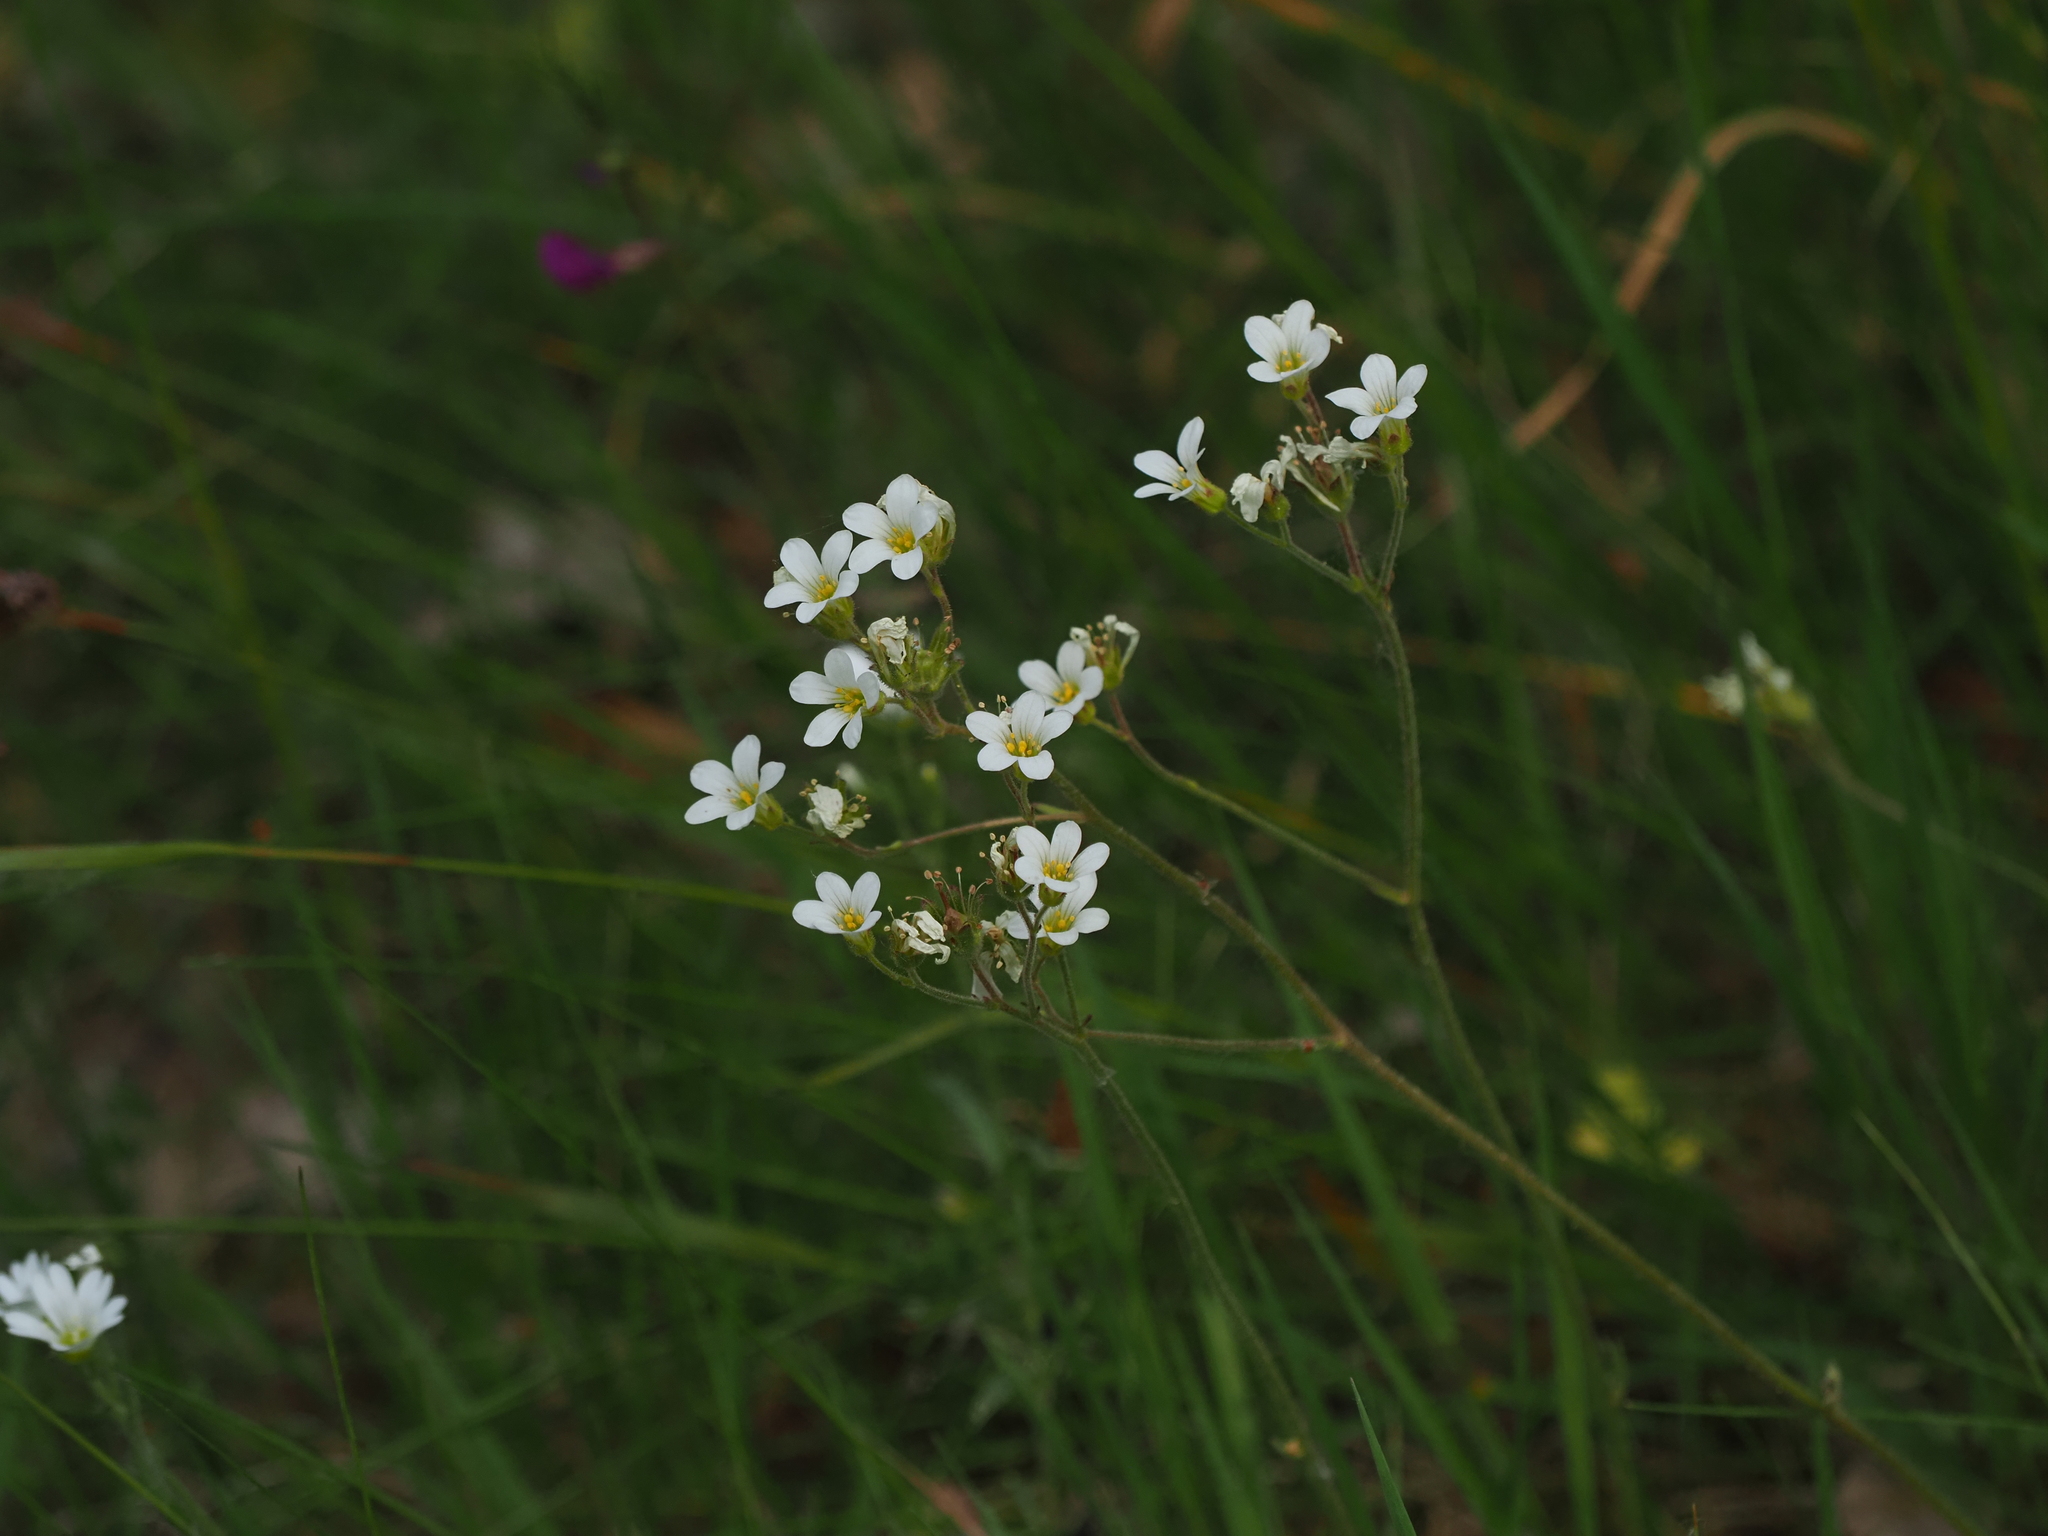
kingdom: Plantae
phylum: Tracheophyta
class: Magnoliopsida
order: Saxifragales
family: Saxifragaceae
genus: Saxifraga
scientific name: Saxifraga granulata
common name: Meadow saxifrage
